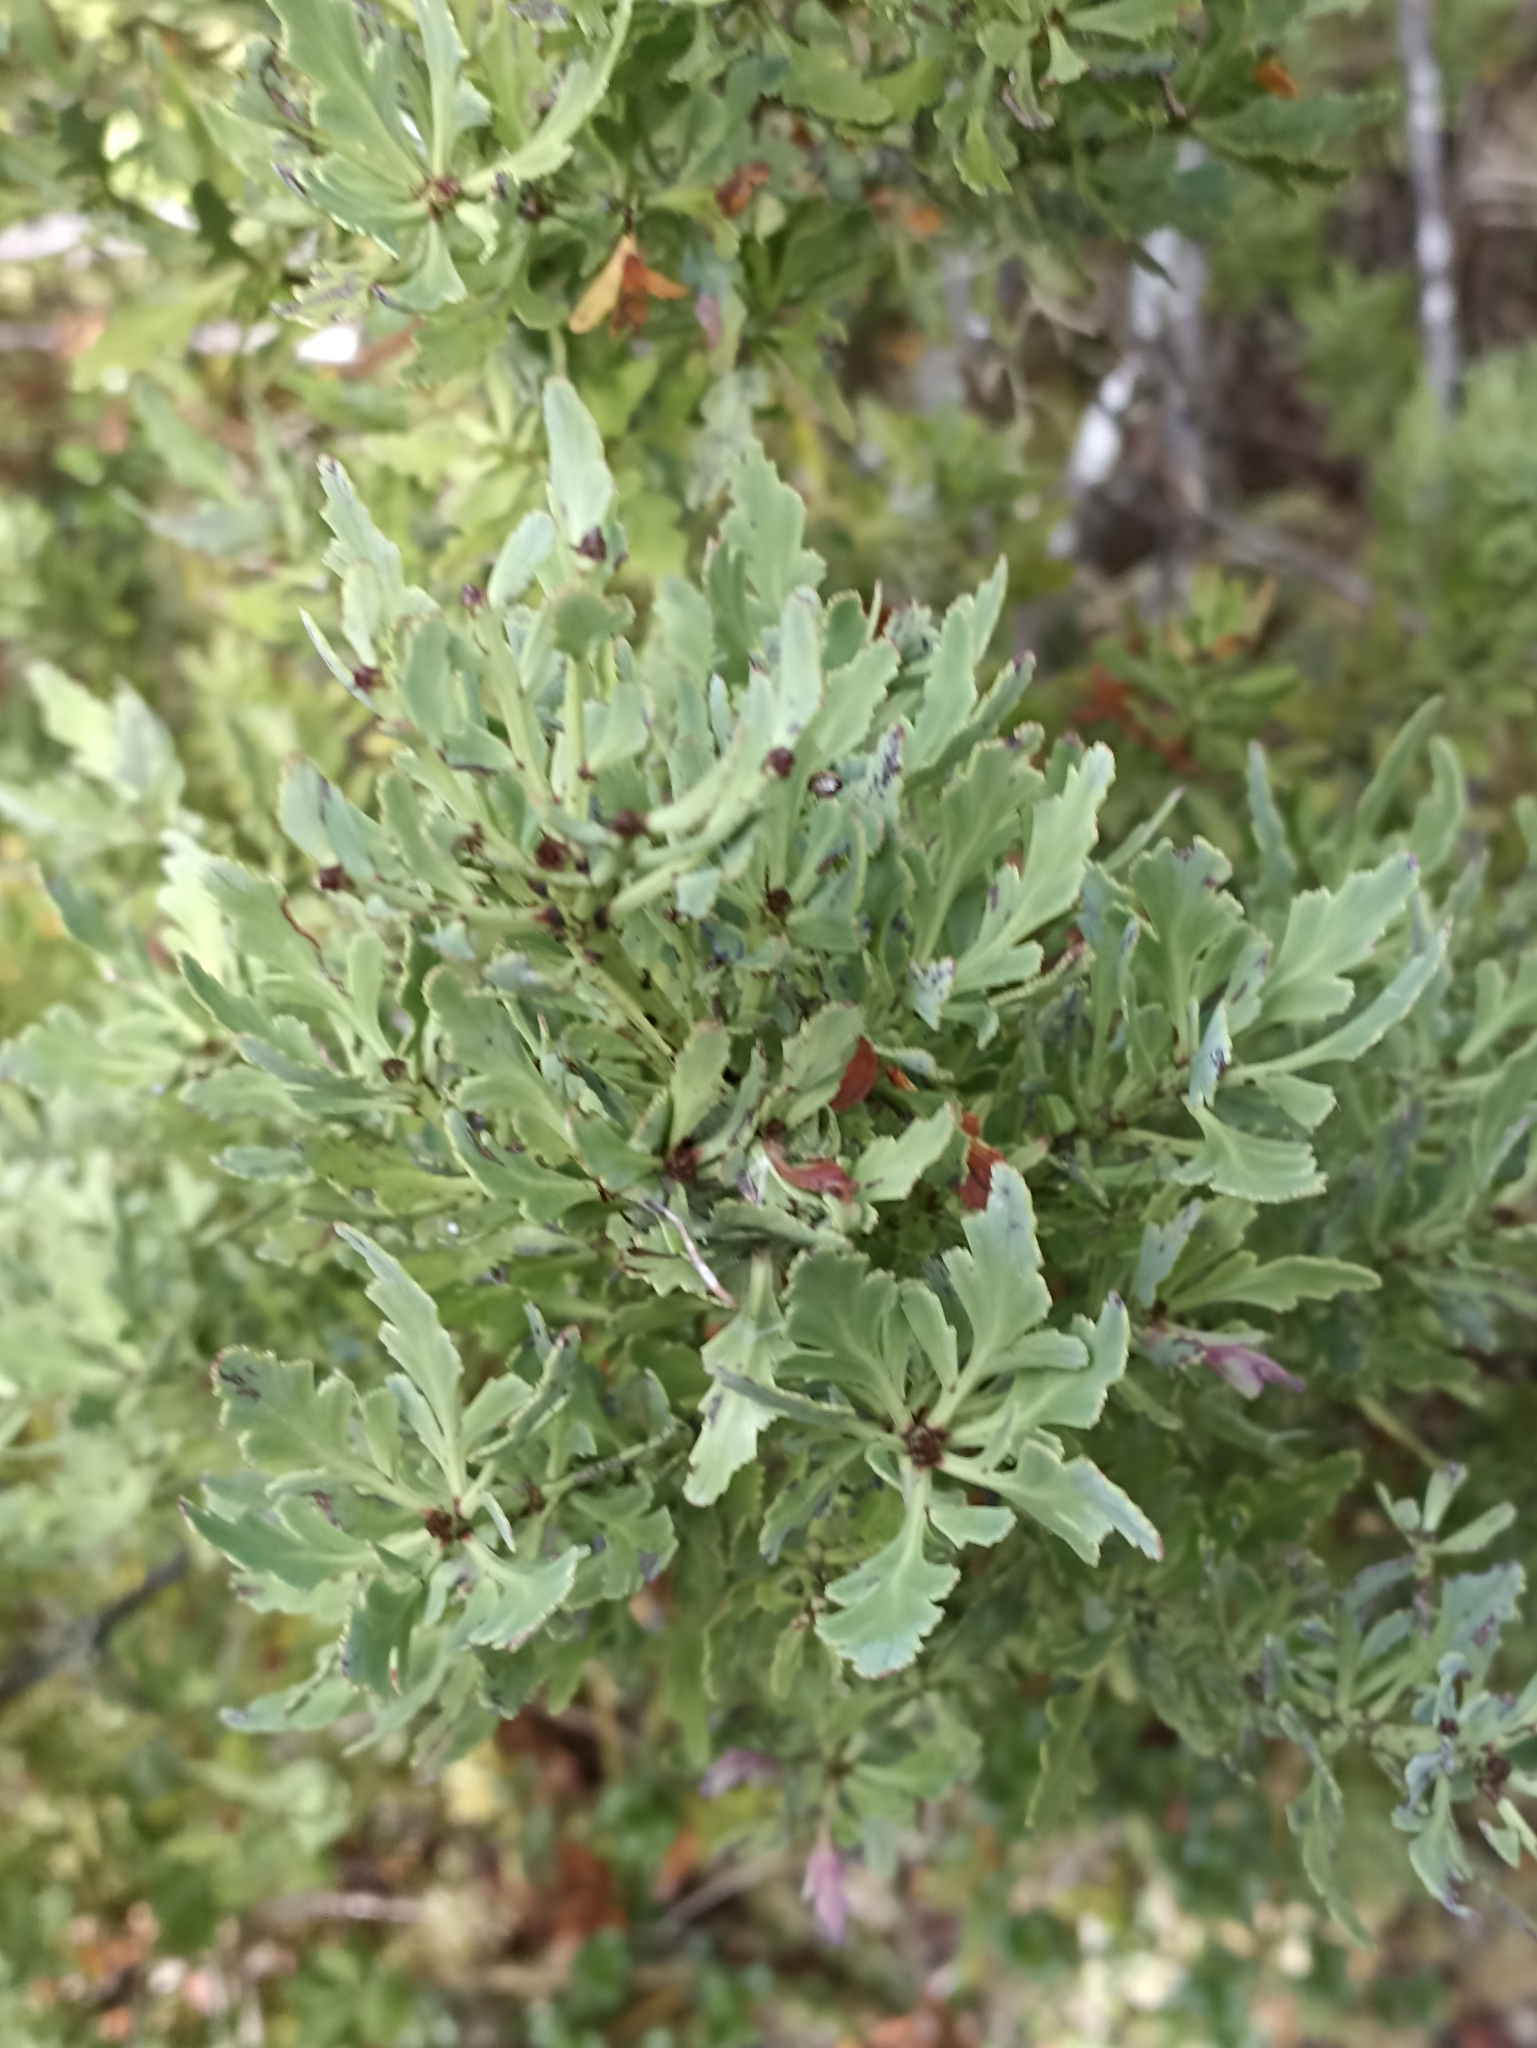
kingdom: Plantae
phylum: Tracheophyta
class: Pinopsida
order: Pinales
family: Phyllocladaceae
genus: Phyllocladus
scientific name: Phyllocladus trichomanoides
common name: Celery pine
